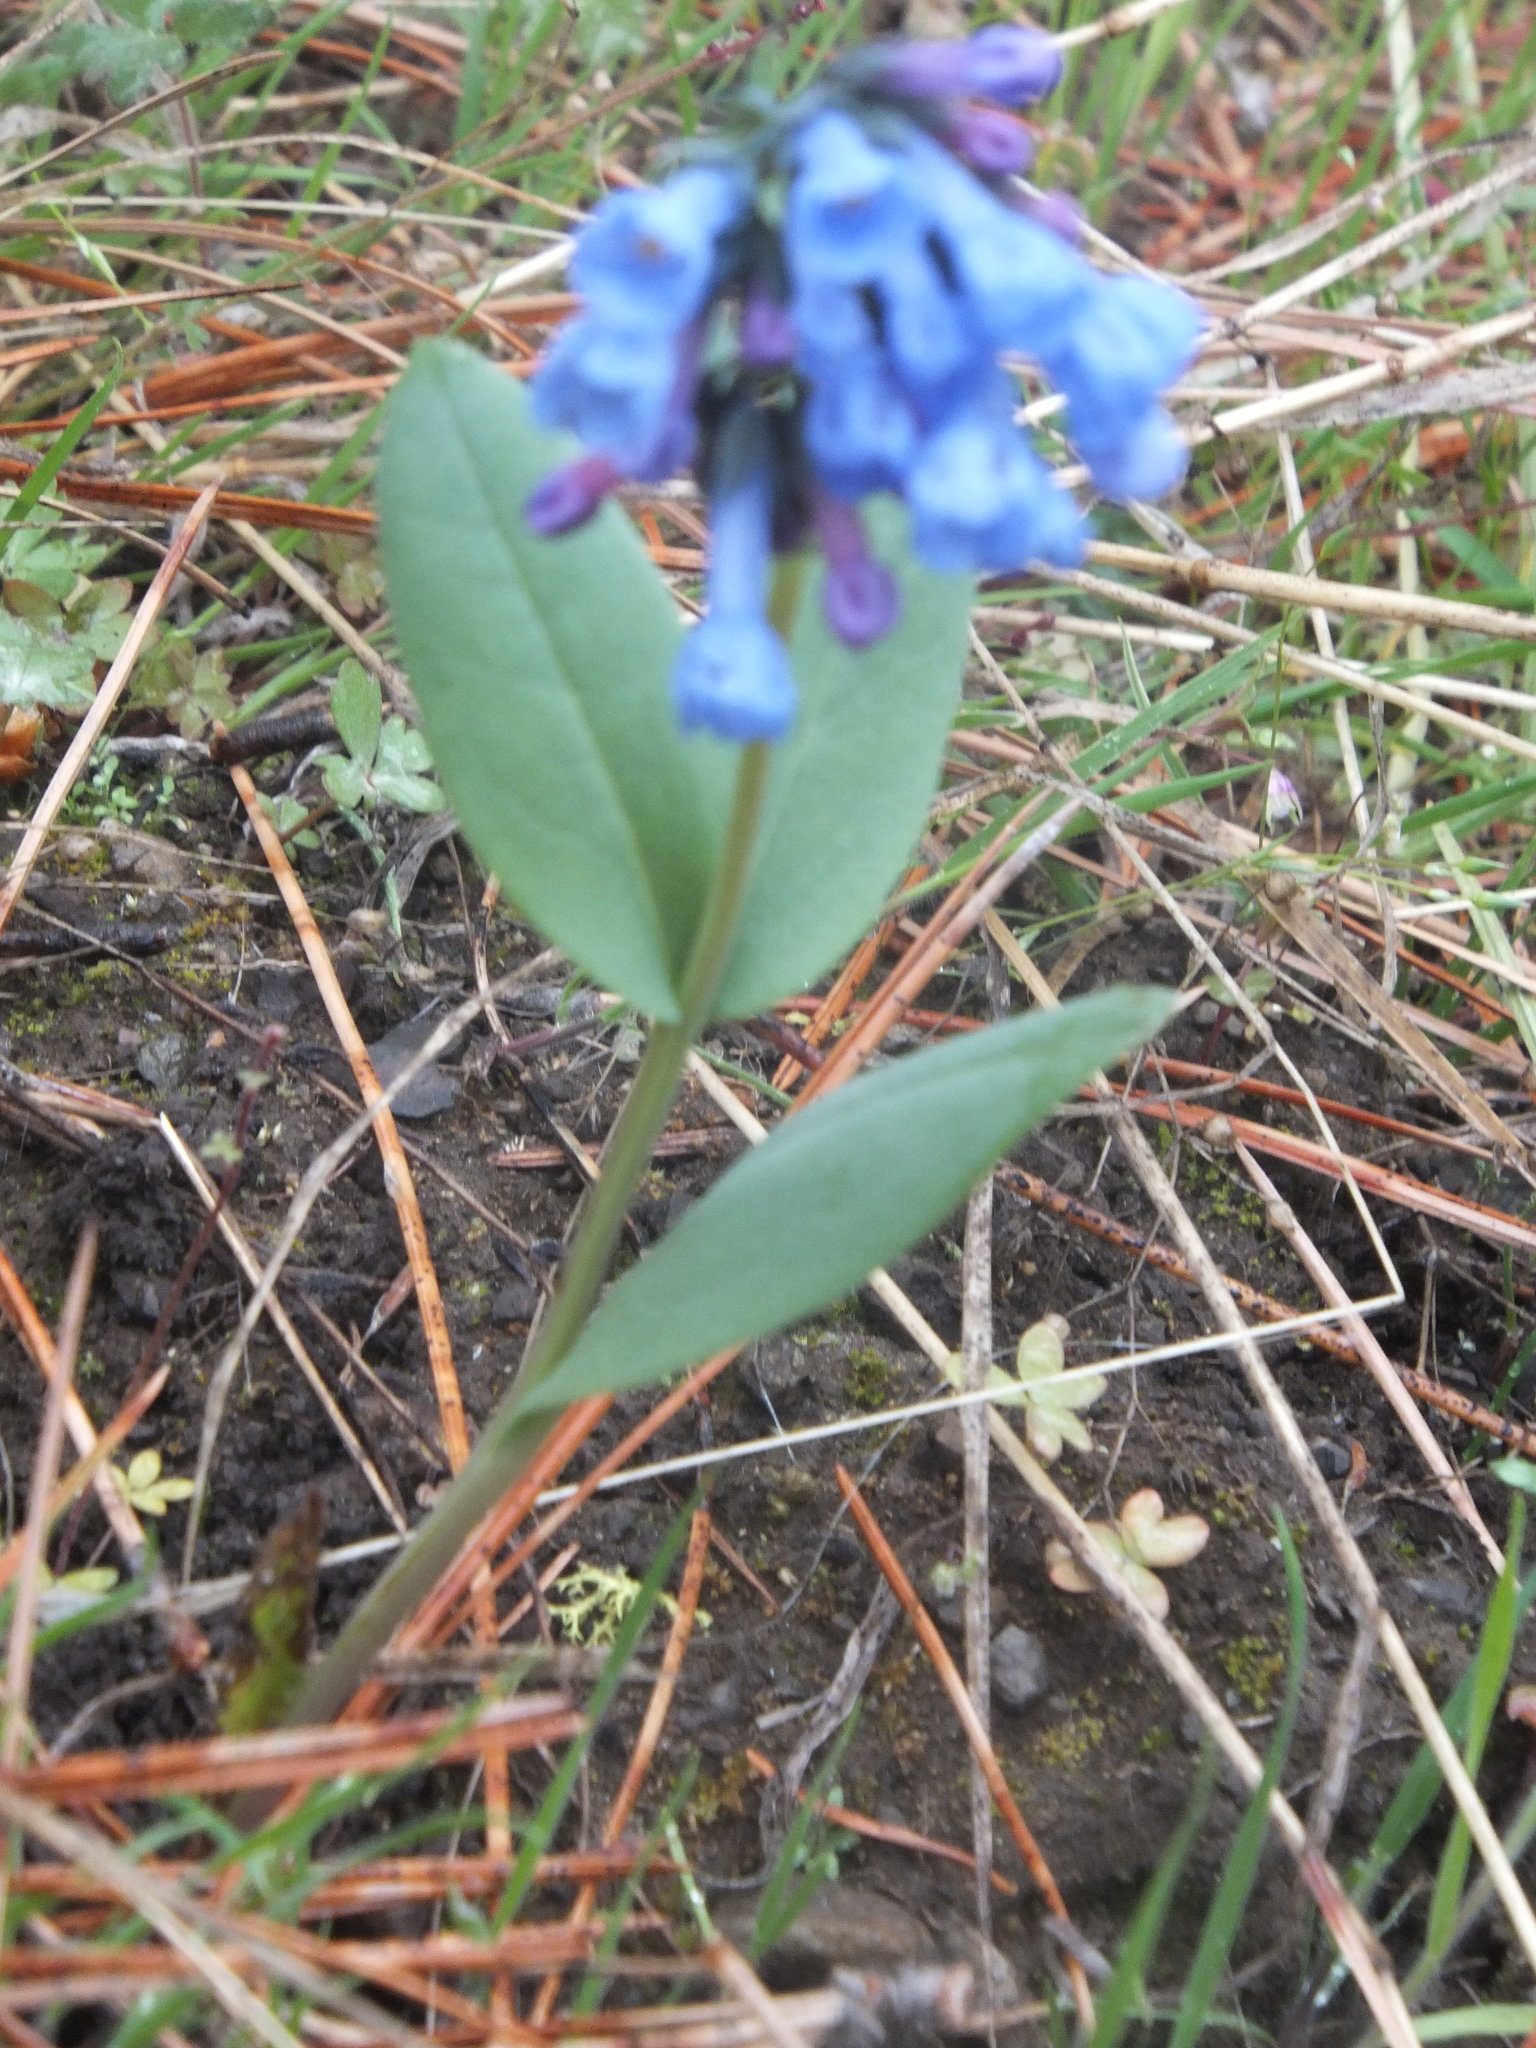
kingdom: Plantae
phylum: Tracheophyta
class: Magnoliopsida
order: Boraginales
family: Boraginaceae
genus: Mertensia
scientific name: Mertensia longiflora
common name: Large-flowered bluebells
